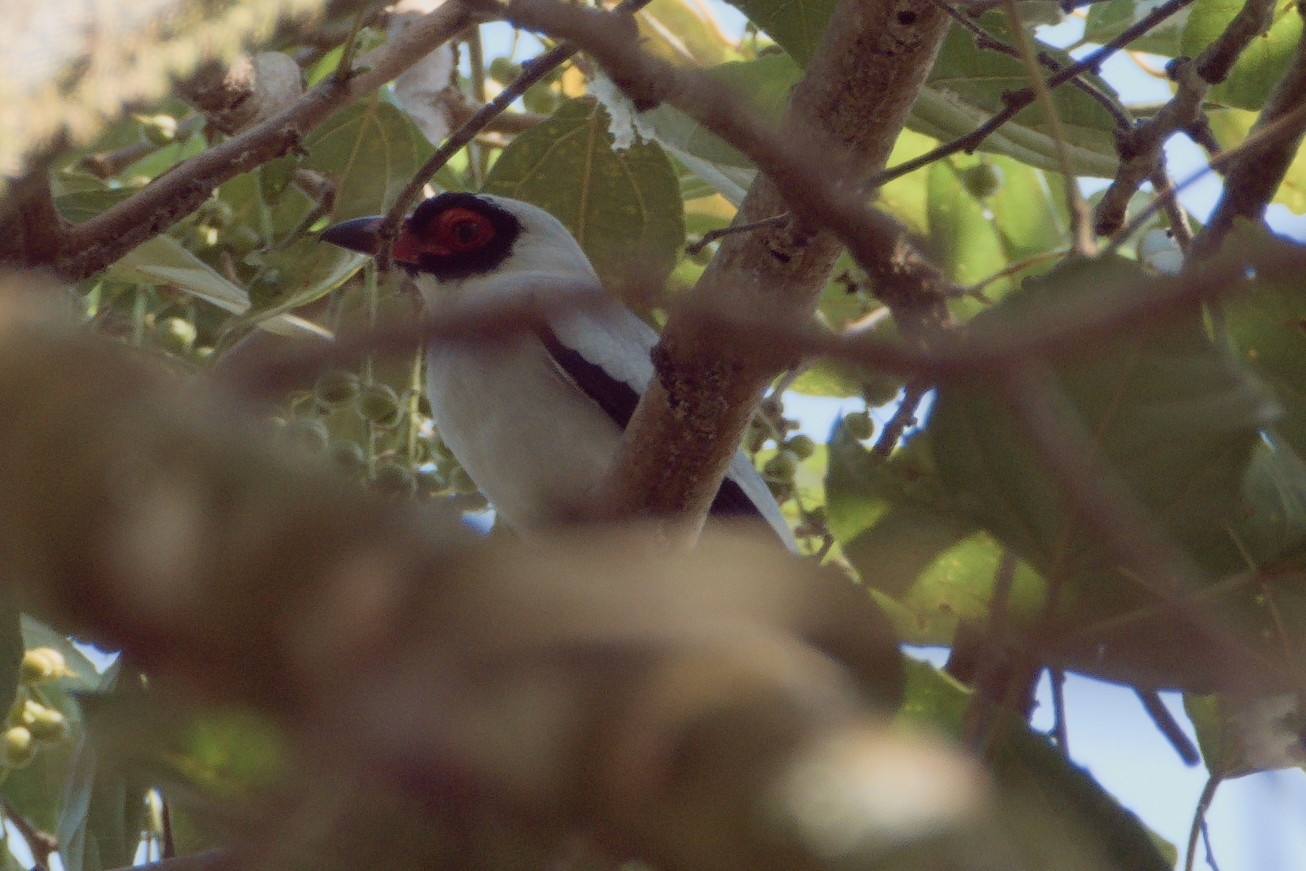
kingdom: Animalia
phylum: Chordata
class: Aves
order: Passeriformes
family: Cotingidae
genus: Tityra
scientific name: Tityra semifasciata
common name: Masked tityra
